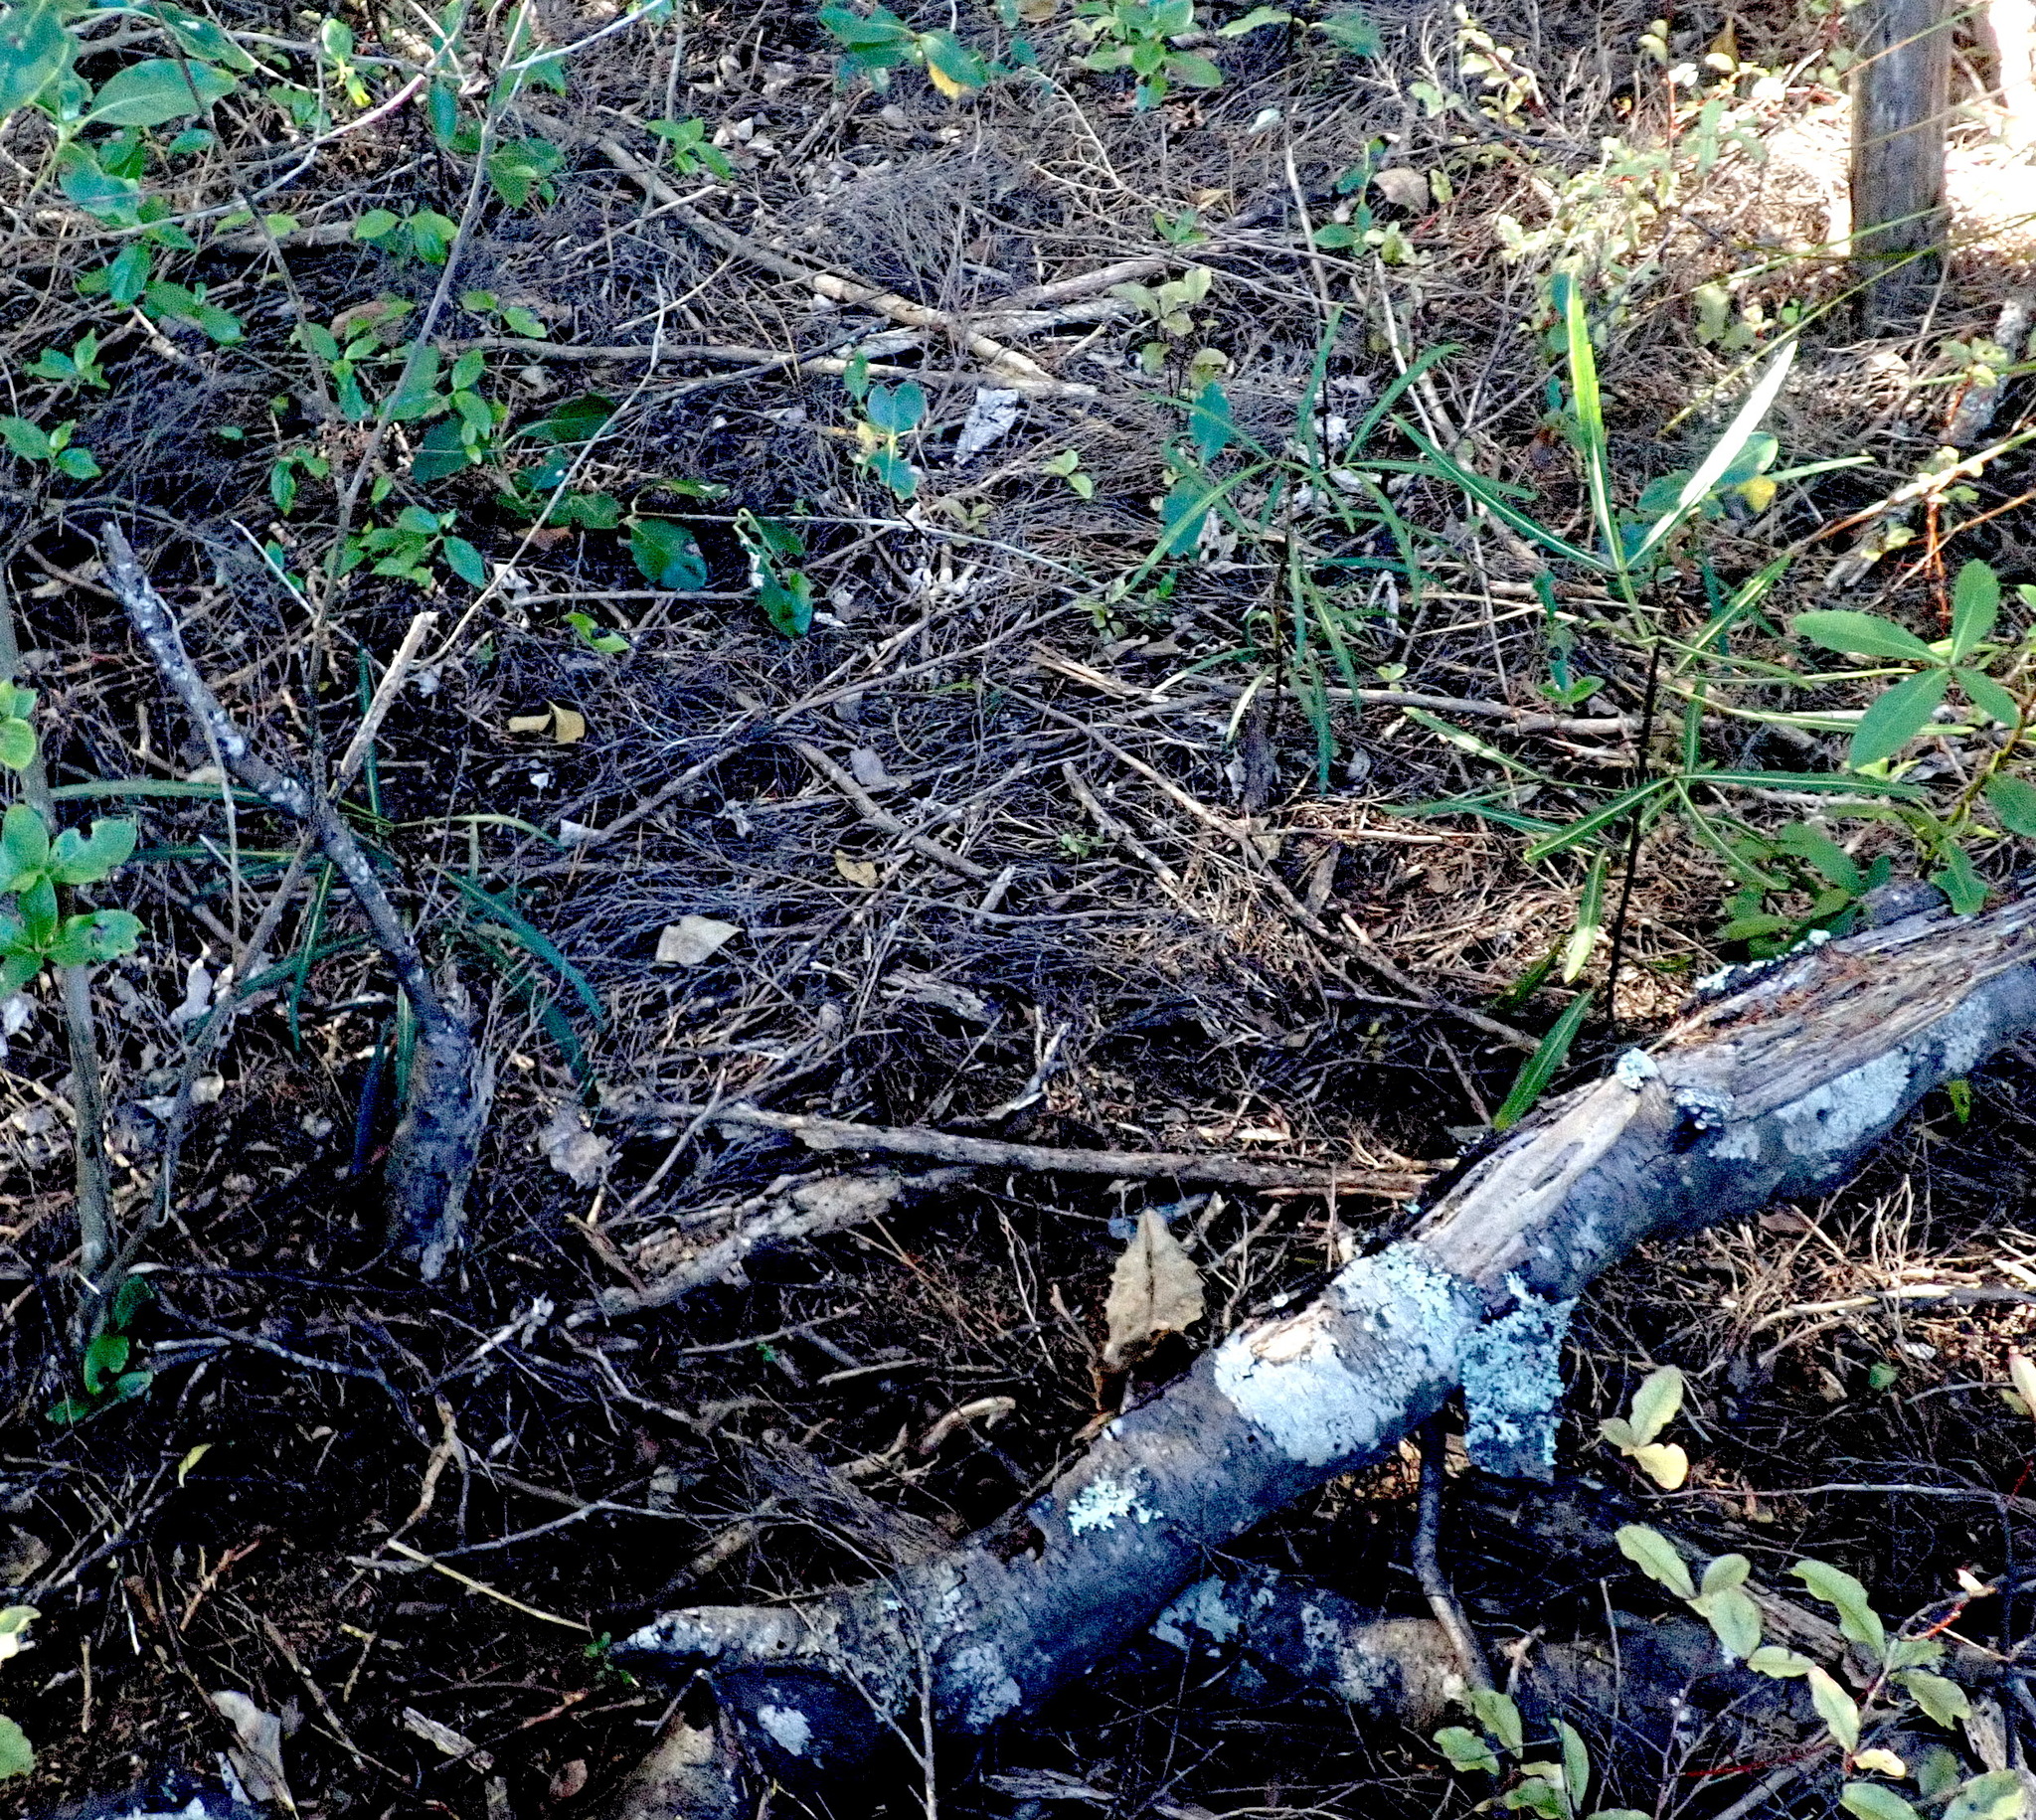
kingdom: Plantae
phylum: Tracheophyta
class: Magnoliopsida
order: Apiales
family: Araliaceae
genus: Pseudopanax
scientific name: Pseudopanax
